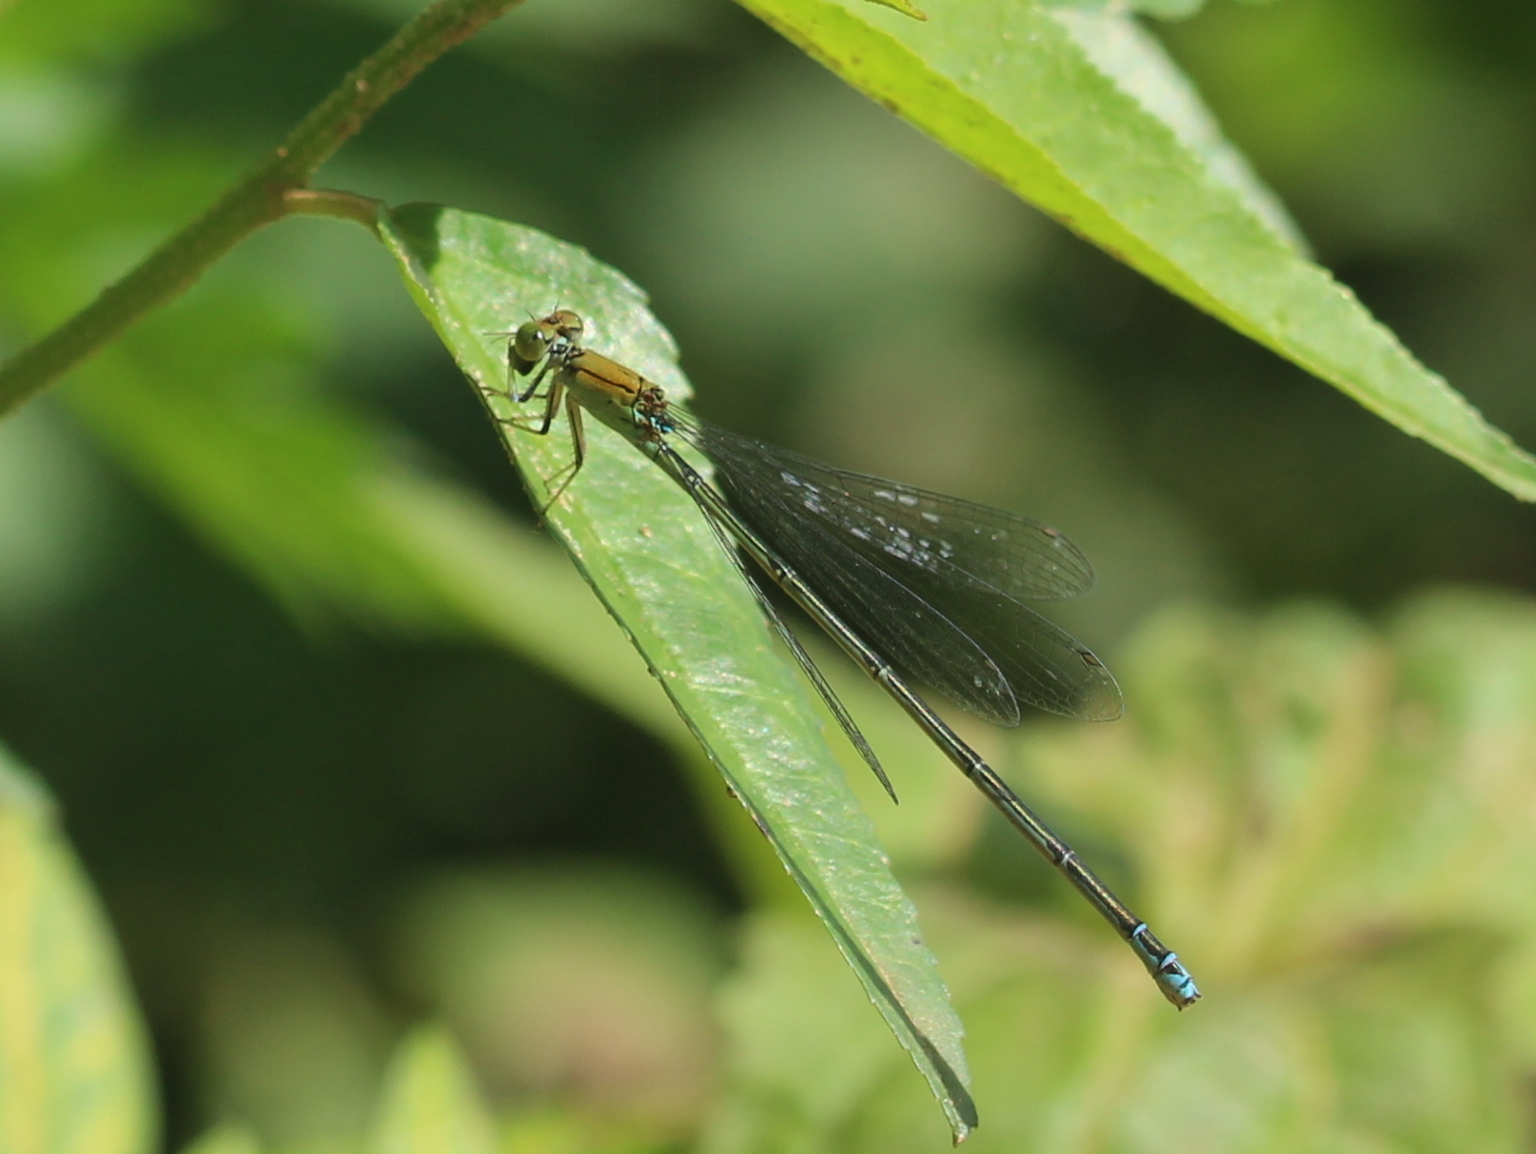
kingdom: Animalia
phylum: Arthropoda
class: Insecta
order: Odonata
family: Coenagrionidae
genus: Pseudagrion
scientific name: Pseudagrion rubriceps
